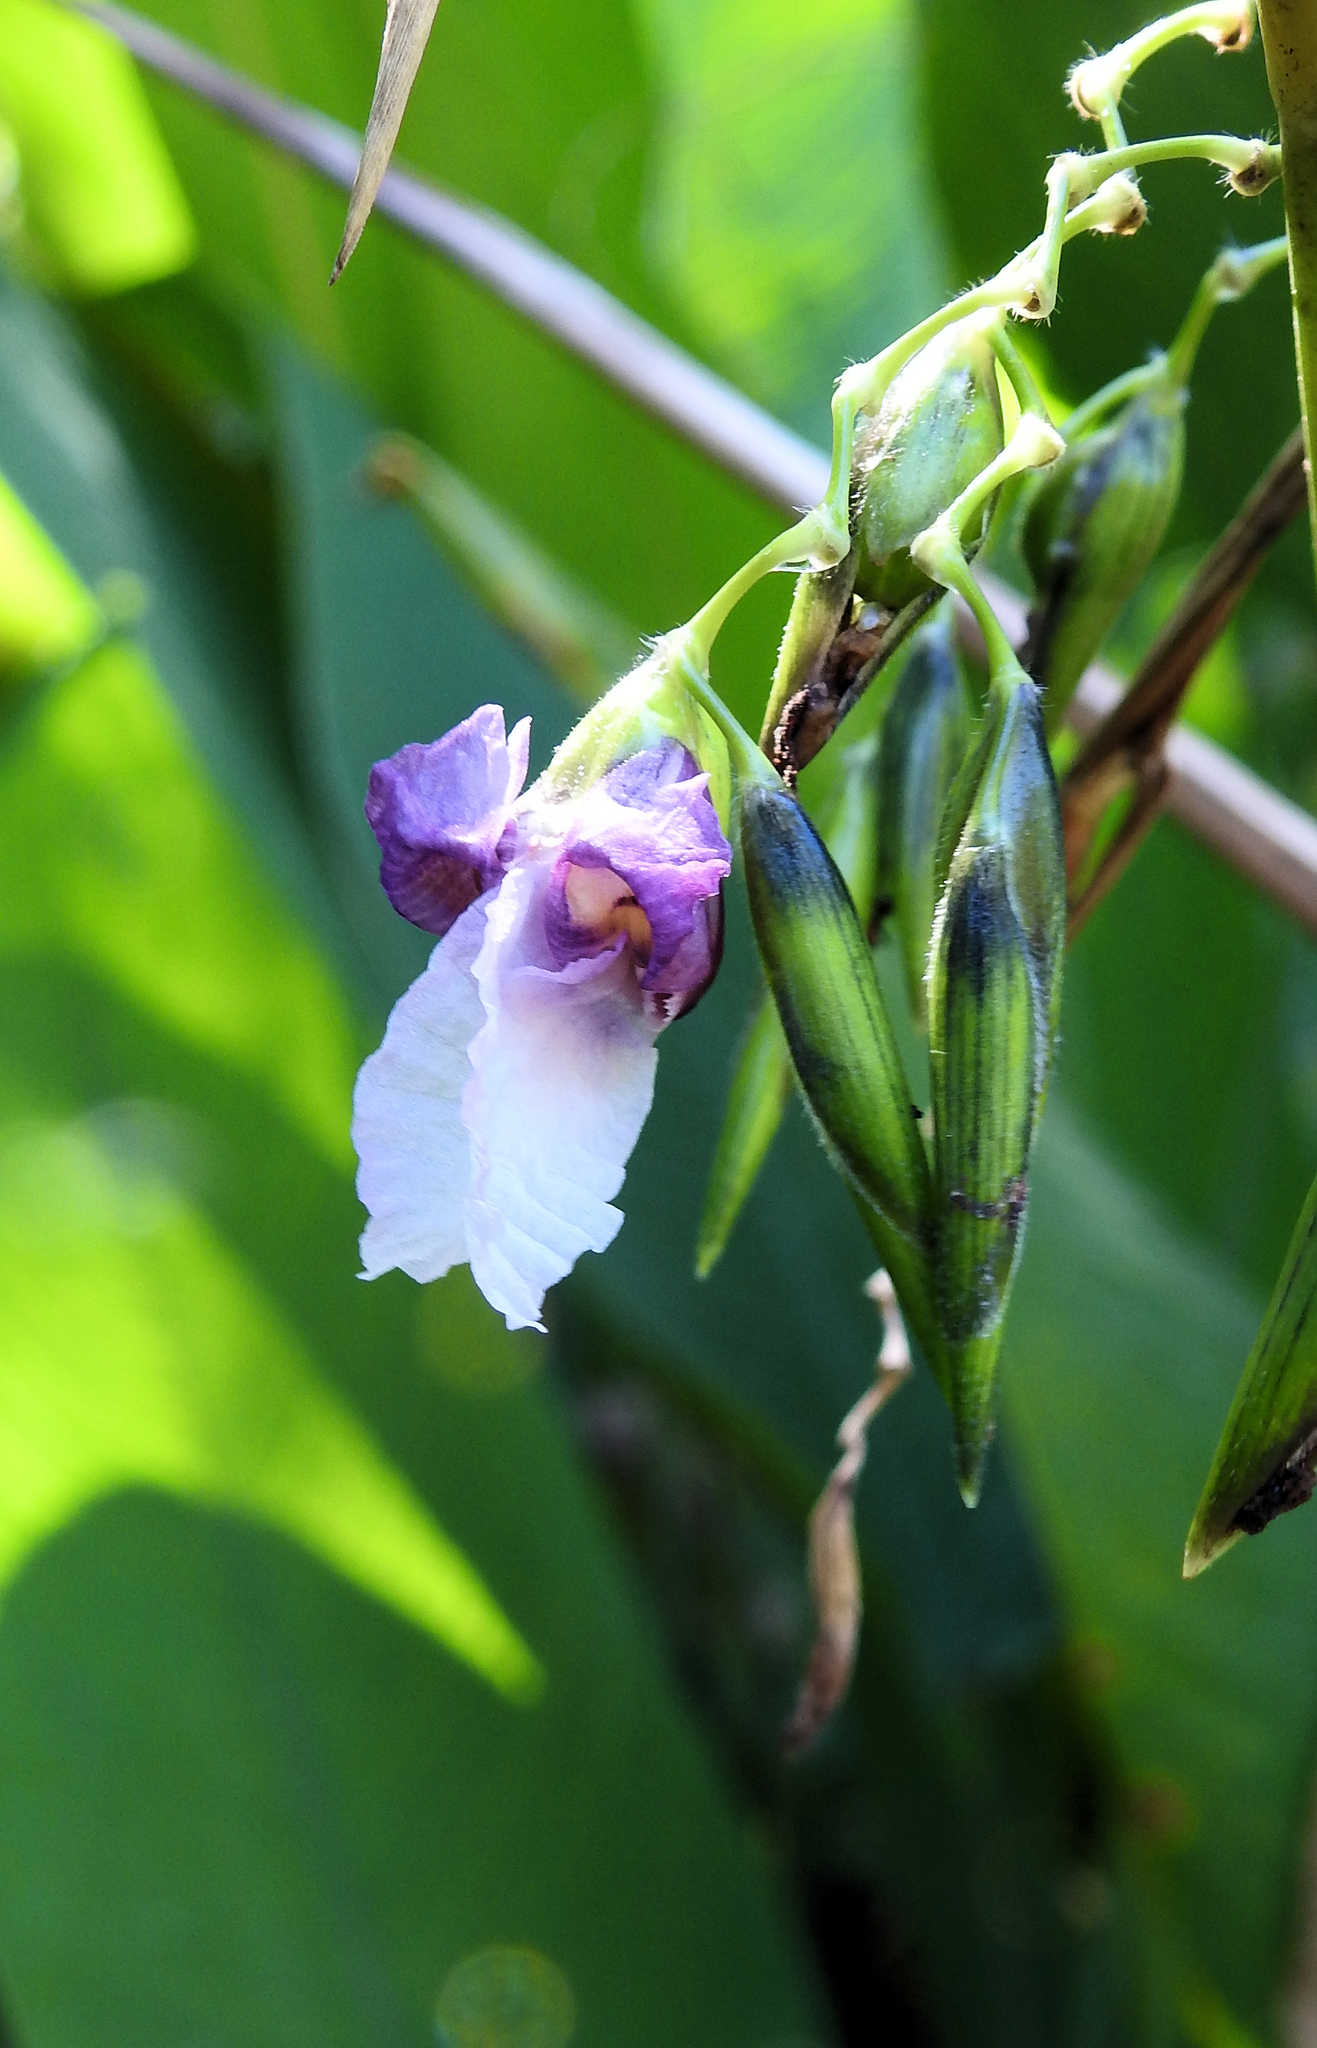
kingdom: Plantae
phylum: Tracheophyta
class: Liliopsida
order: Zingiberales
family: Marantaceae
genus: Thalia
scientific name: Thalia geniculata
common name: Arrowroot
